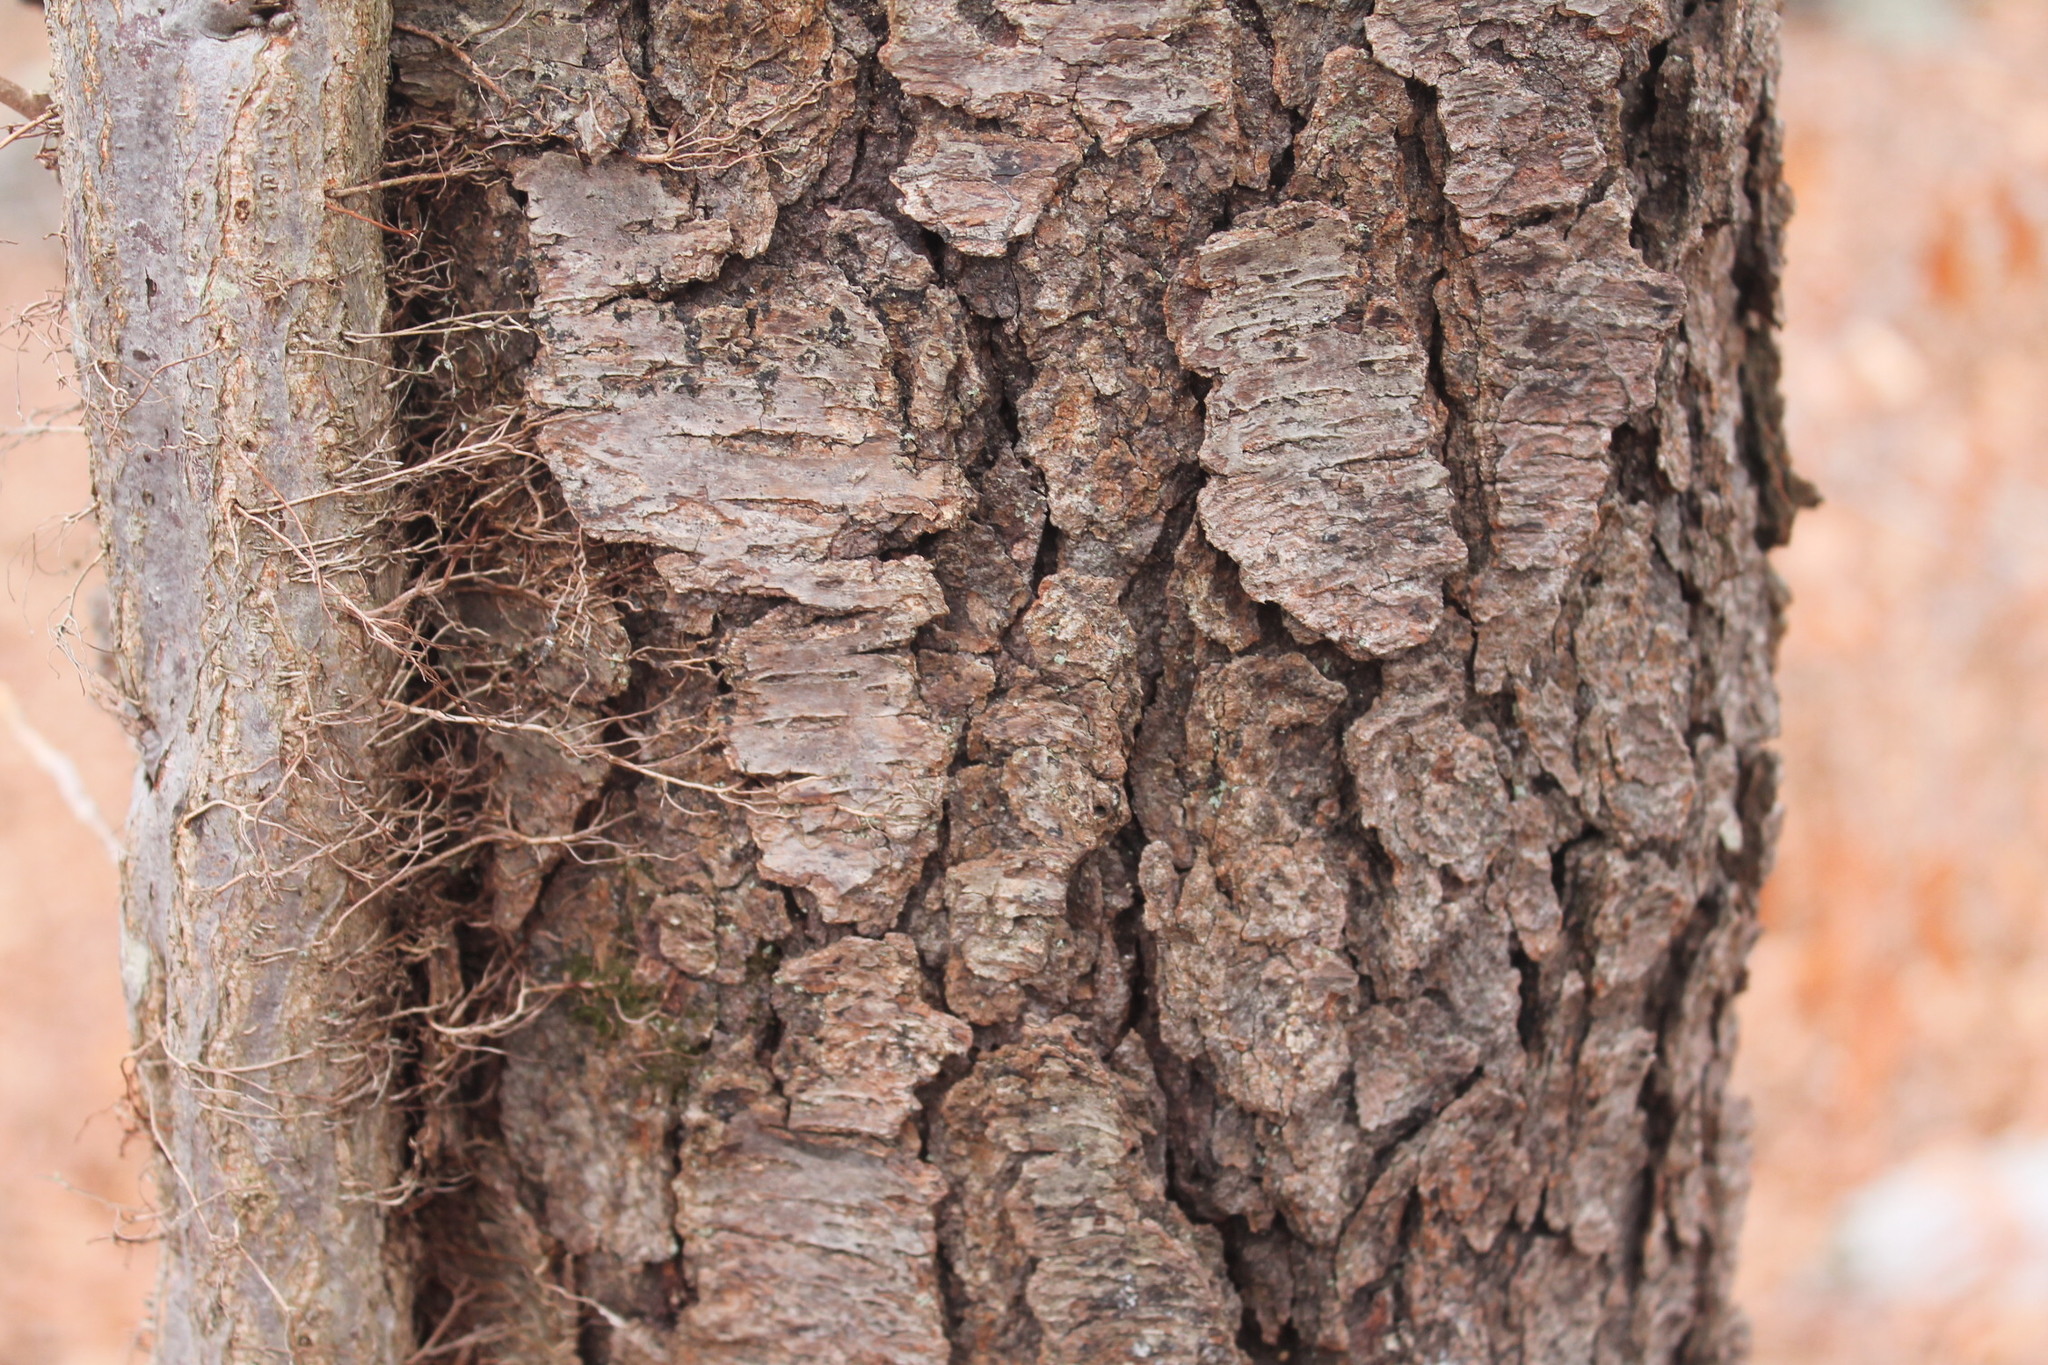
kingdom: Plantae
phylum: Tracheophyta
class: Magnoliopsida
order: Rosales
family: Rosaceae
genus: Prunus
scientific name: Prunus serotina
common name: Black cherry
